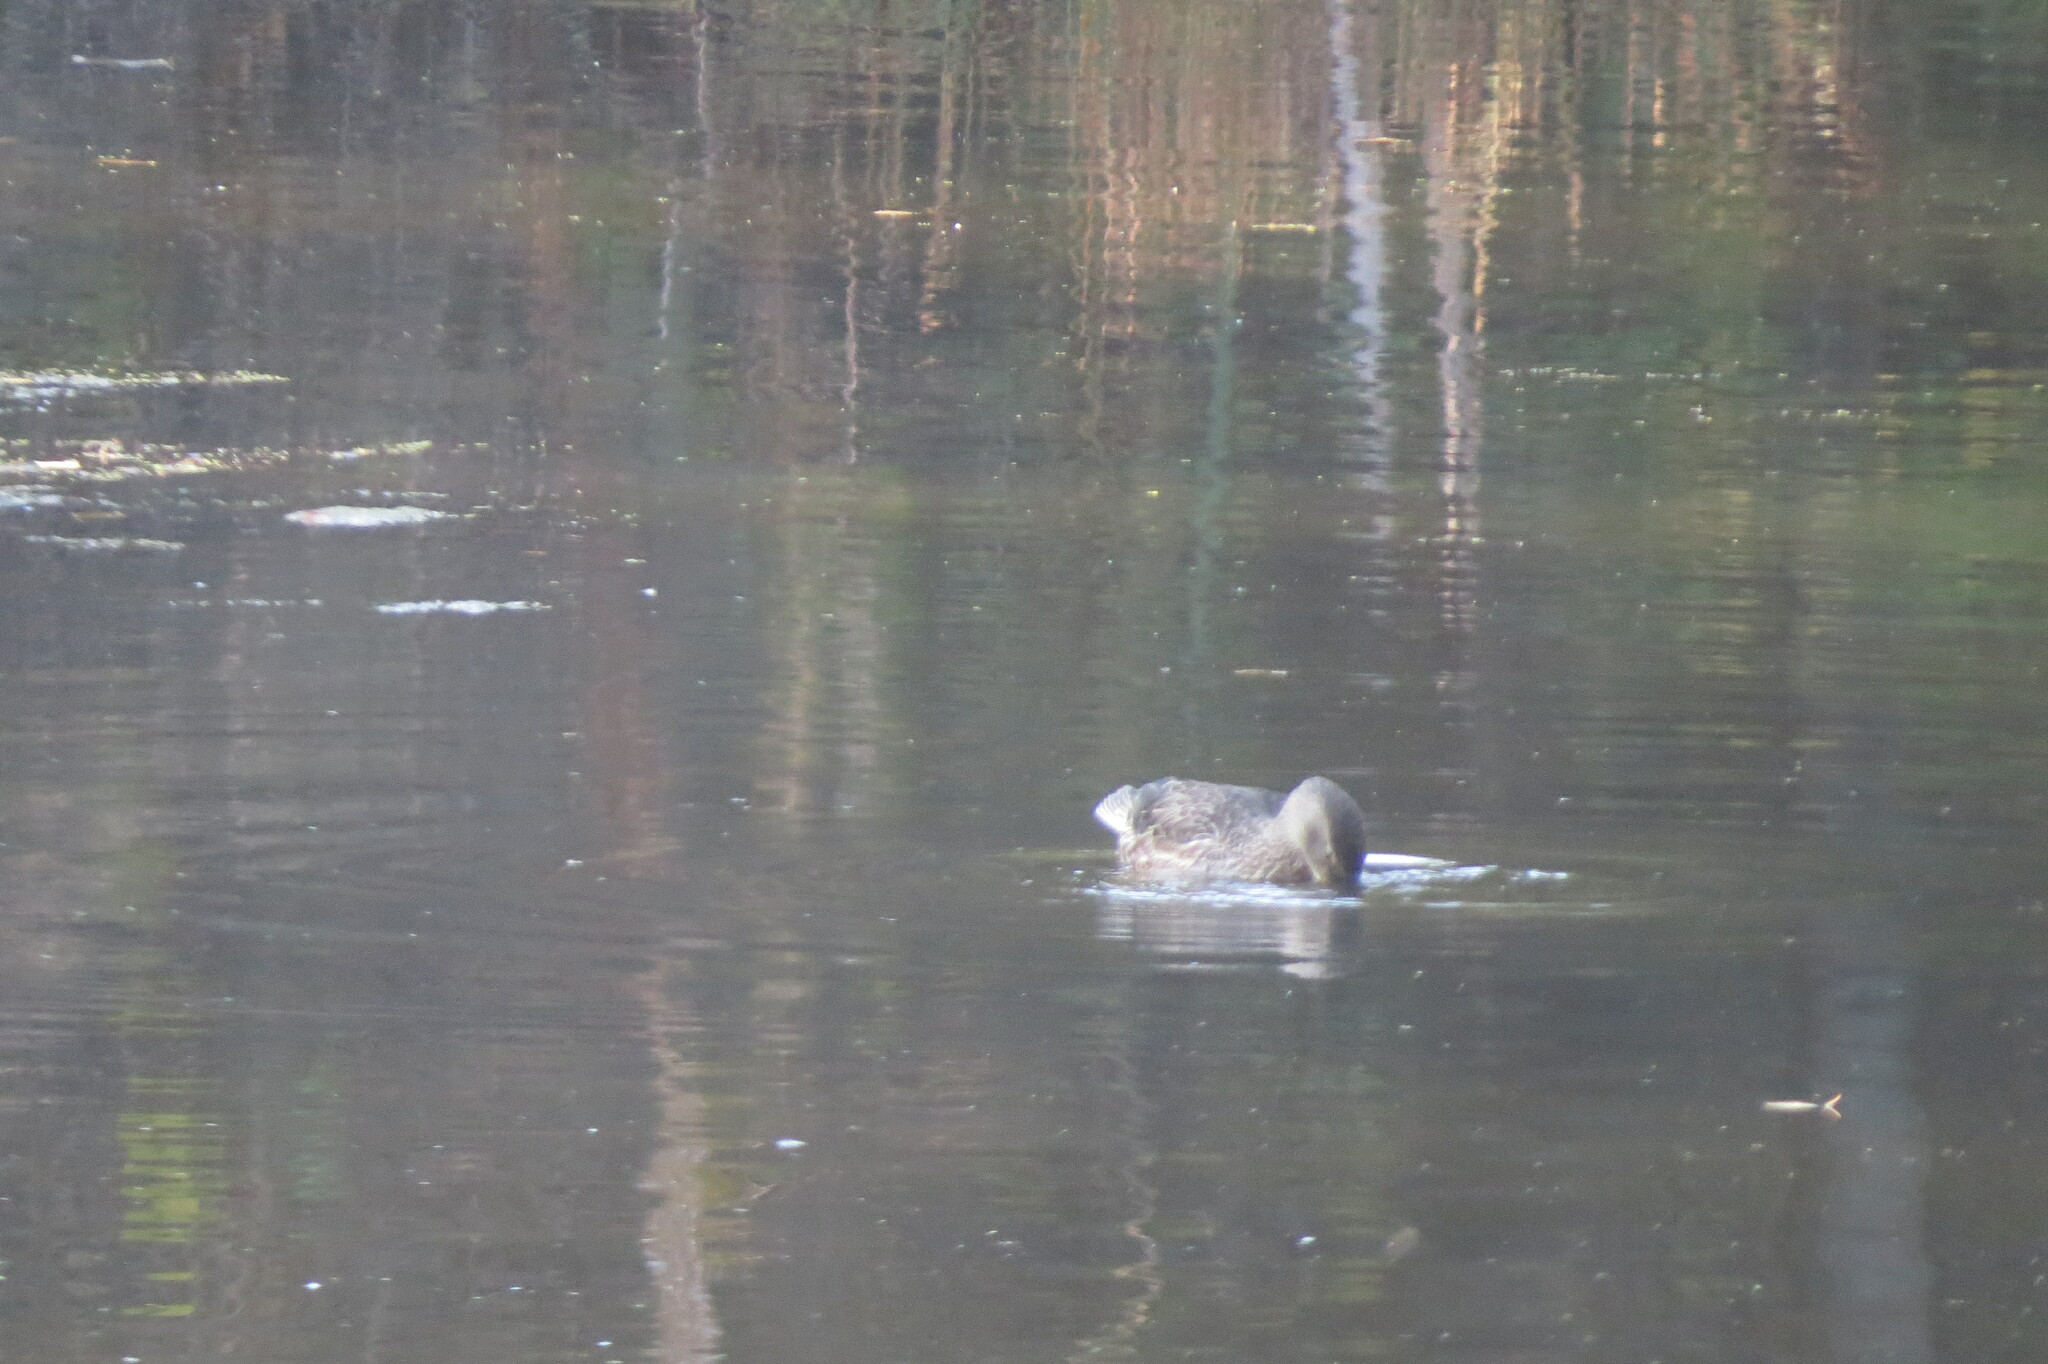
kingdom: Animalia
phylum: Chordata
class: Aves
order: Anseriformes
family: Anatidae
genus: Spatula
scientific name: Spatula clypeata
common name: Northern shoveler
